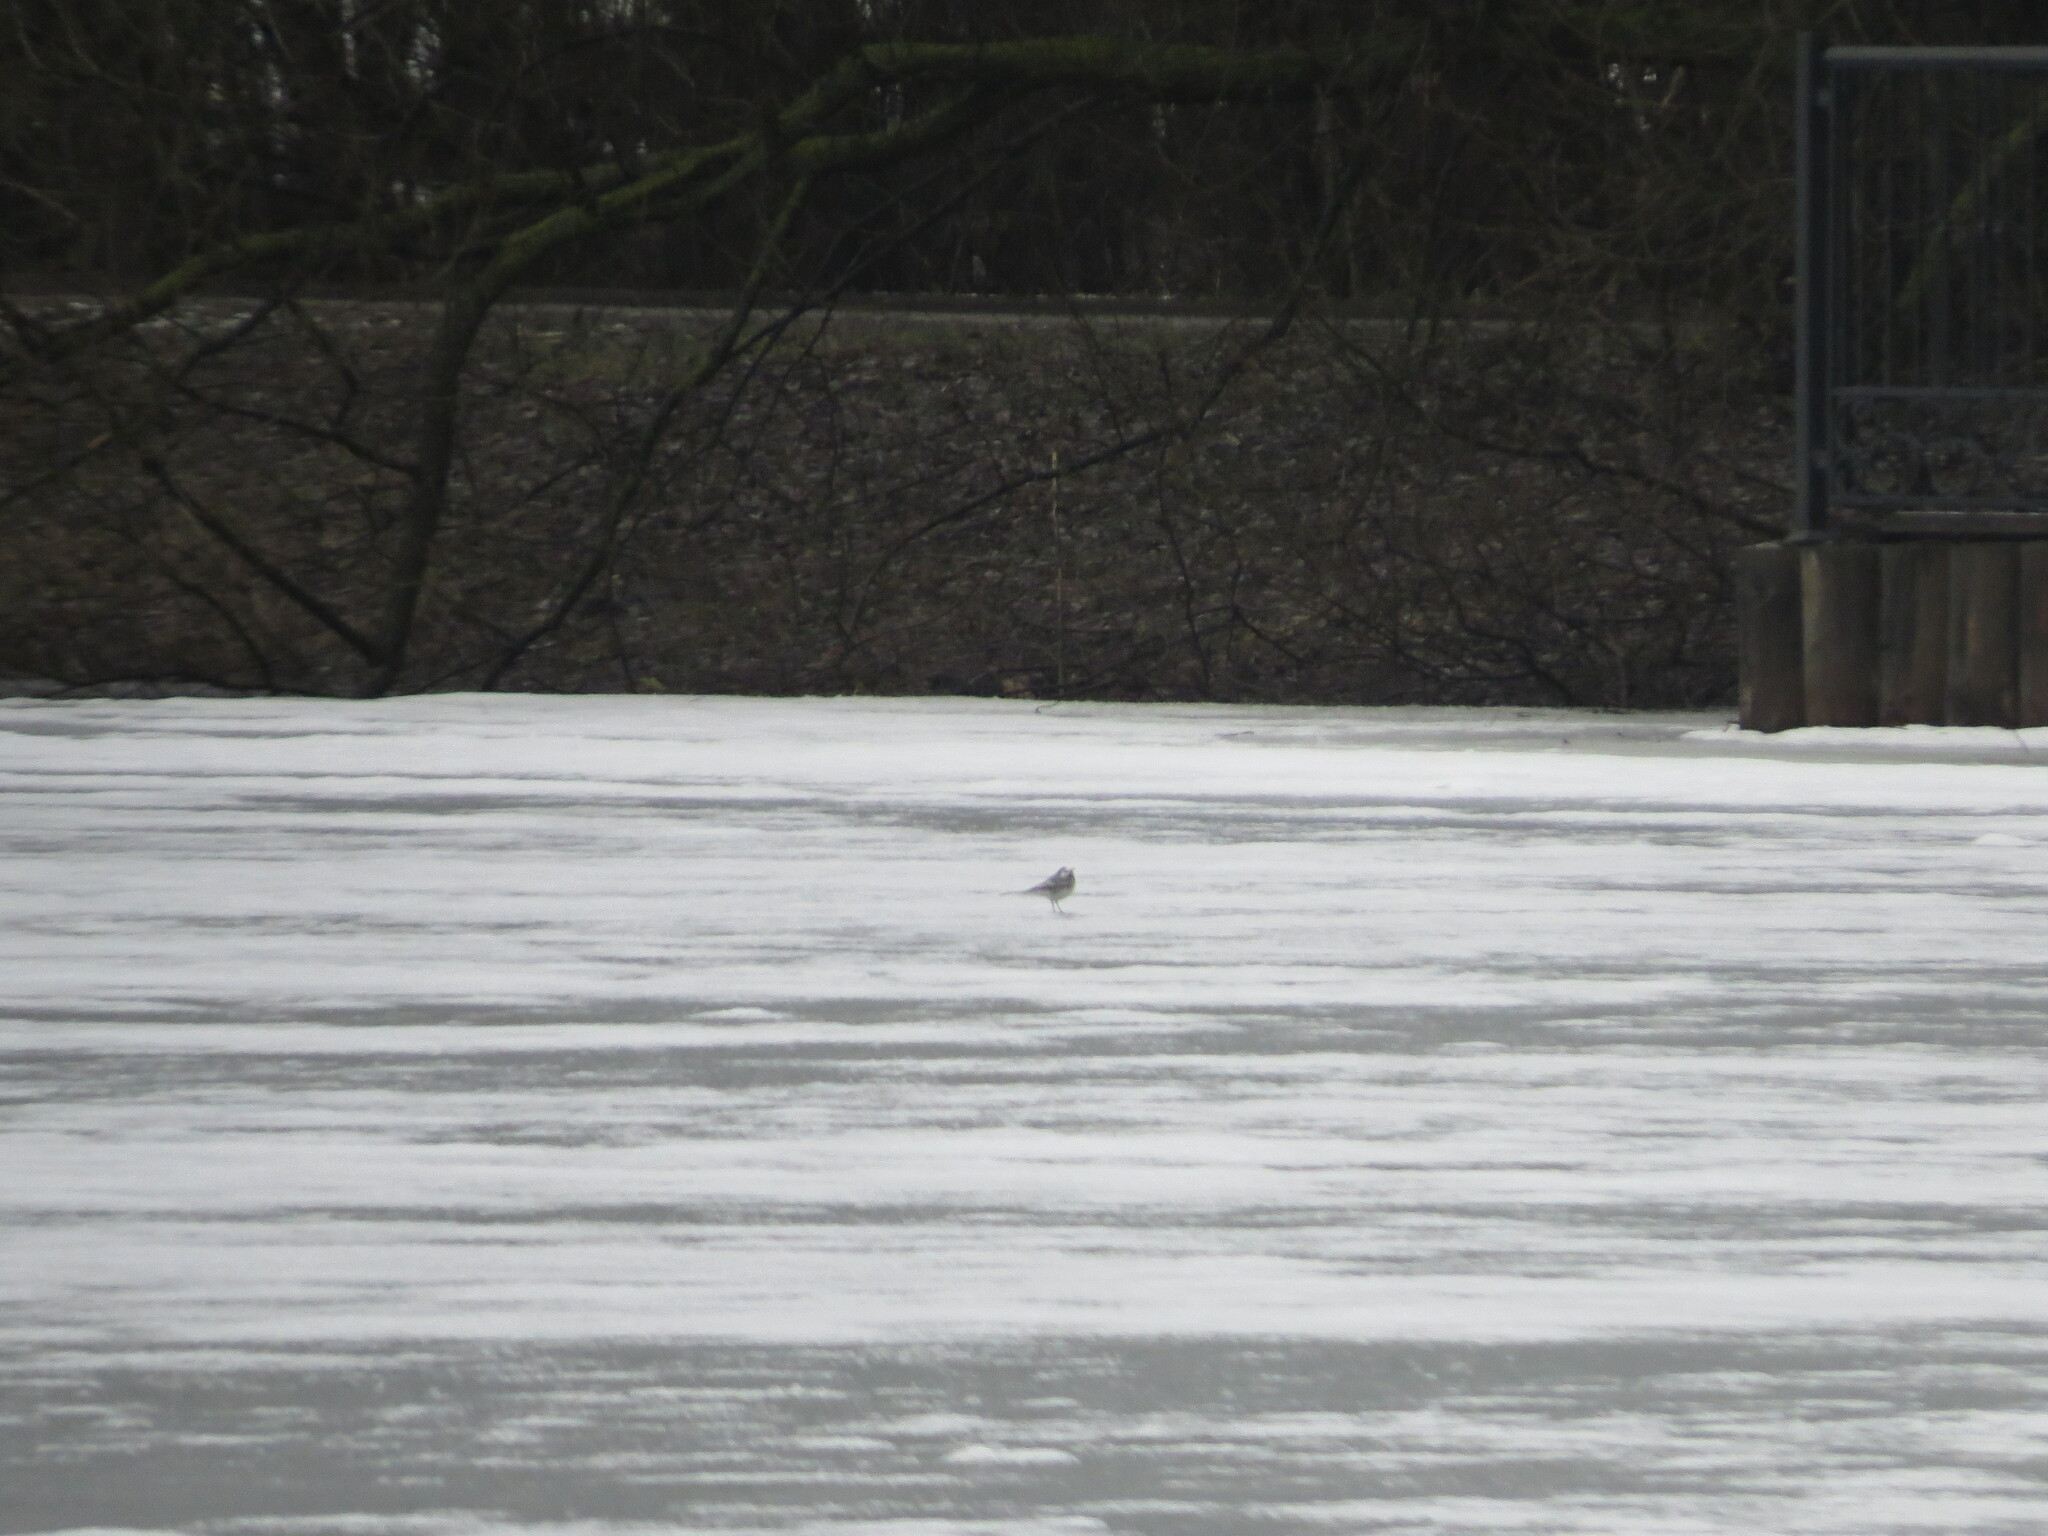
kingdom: Animalia
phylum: Chordata
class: Aves
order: Passeriformes
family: Motacillidae
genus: Motacilla
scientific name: Motacilla alba
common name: White wagtail
